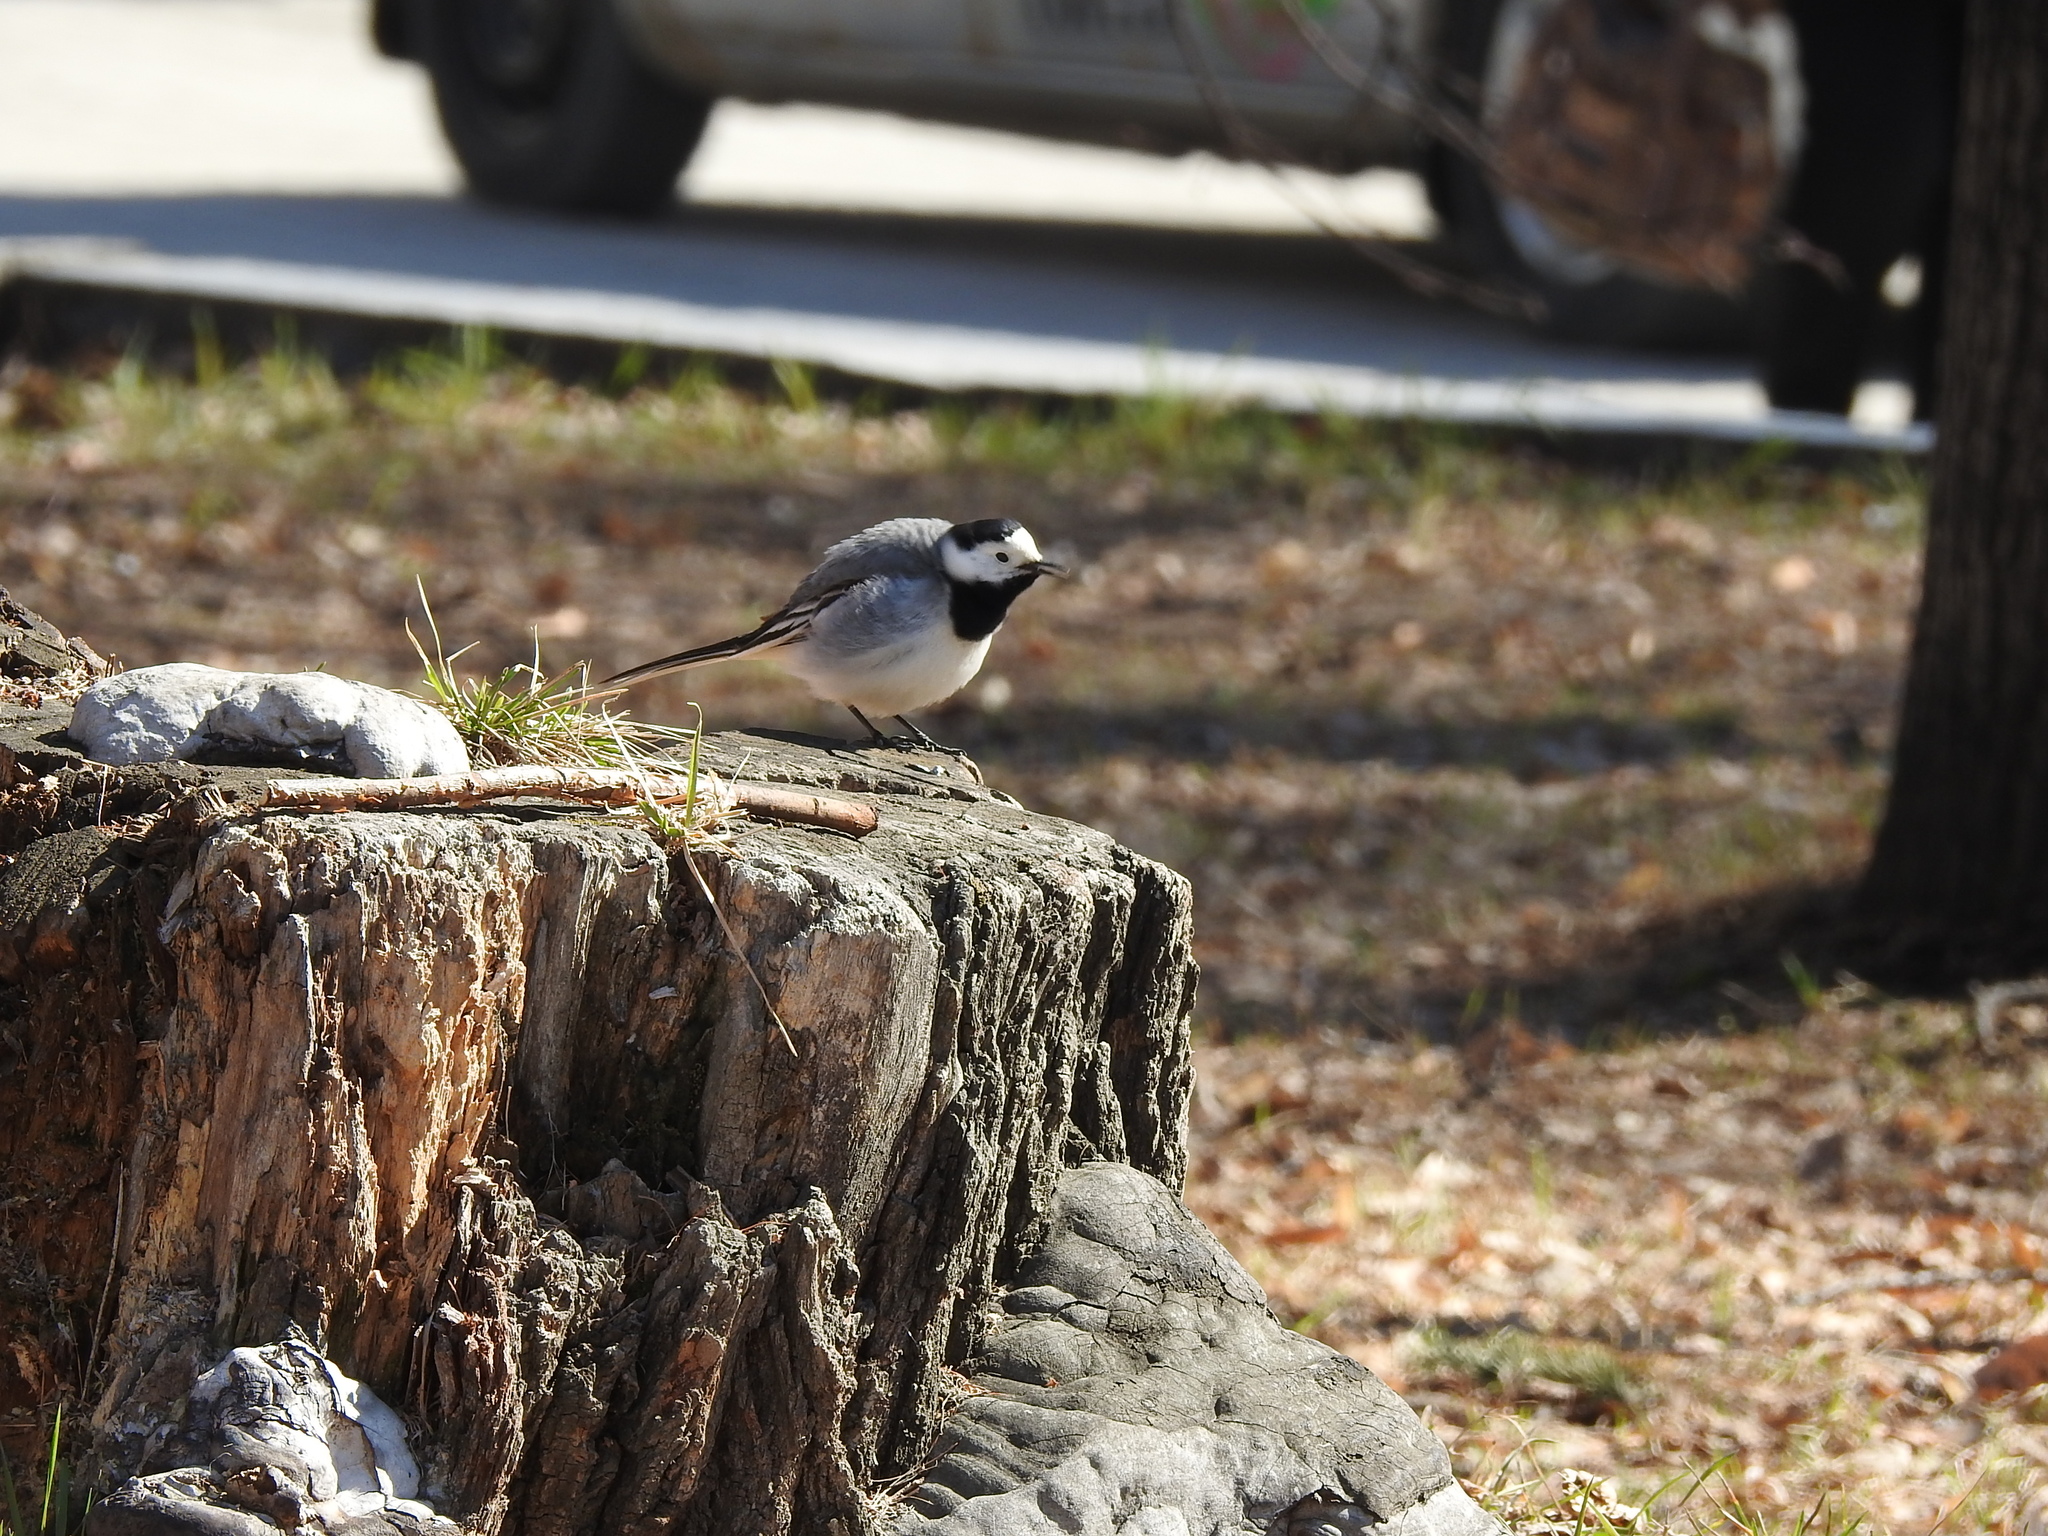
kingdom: Animalia
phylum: Chordata
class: Aves
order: Passeriformes
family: Motacillidae
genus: Motacilla
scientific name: Motacilla alba
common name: White wagtail
